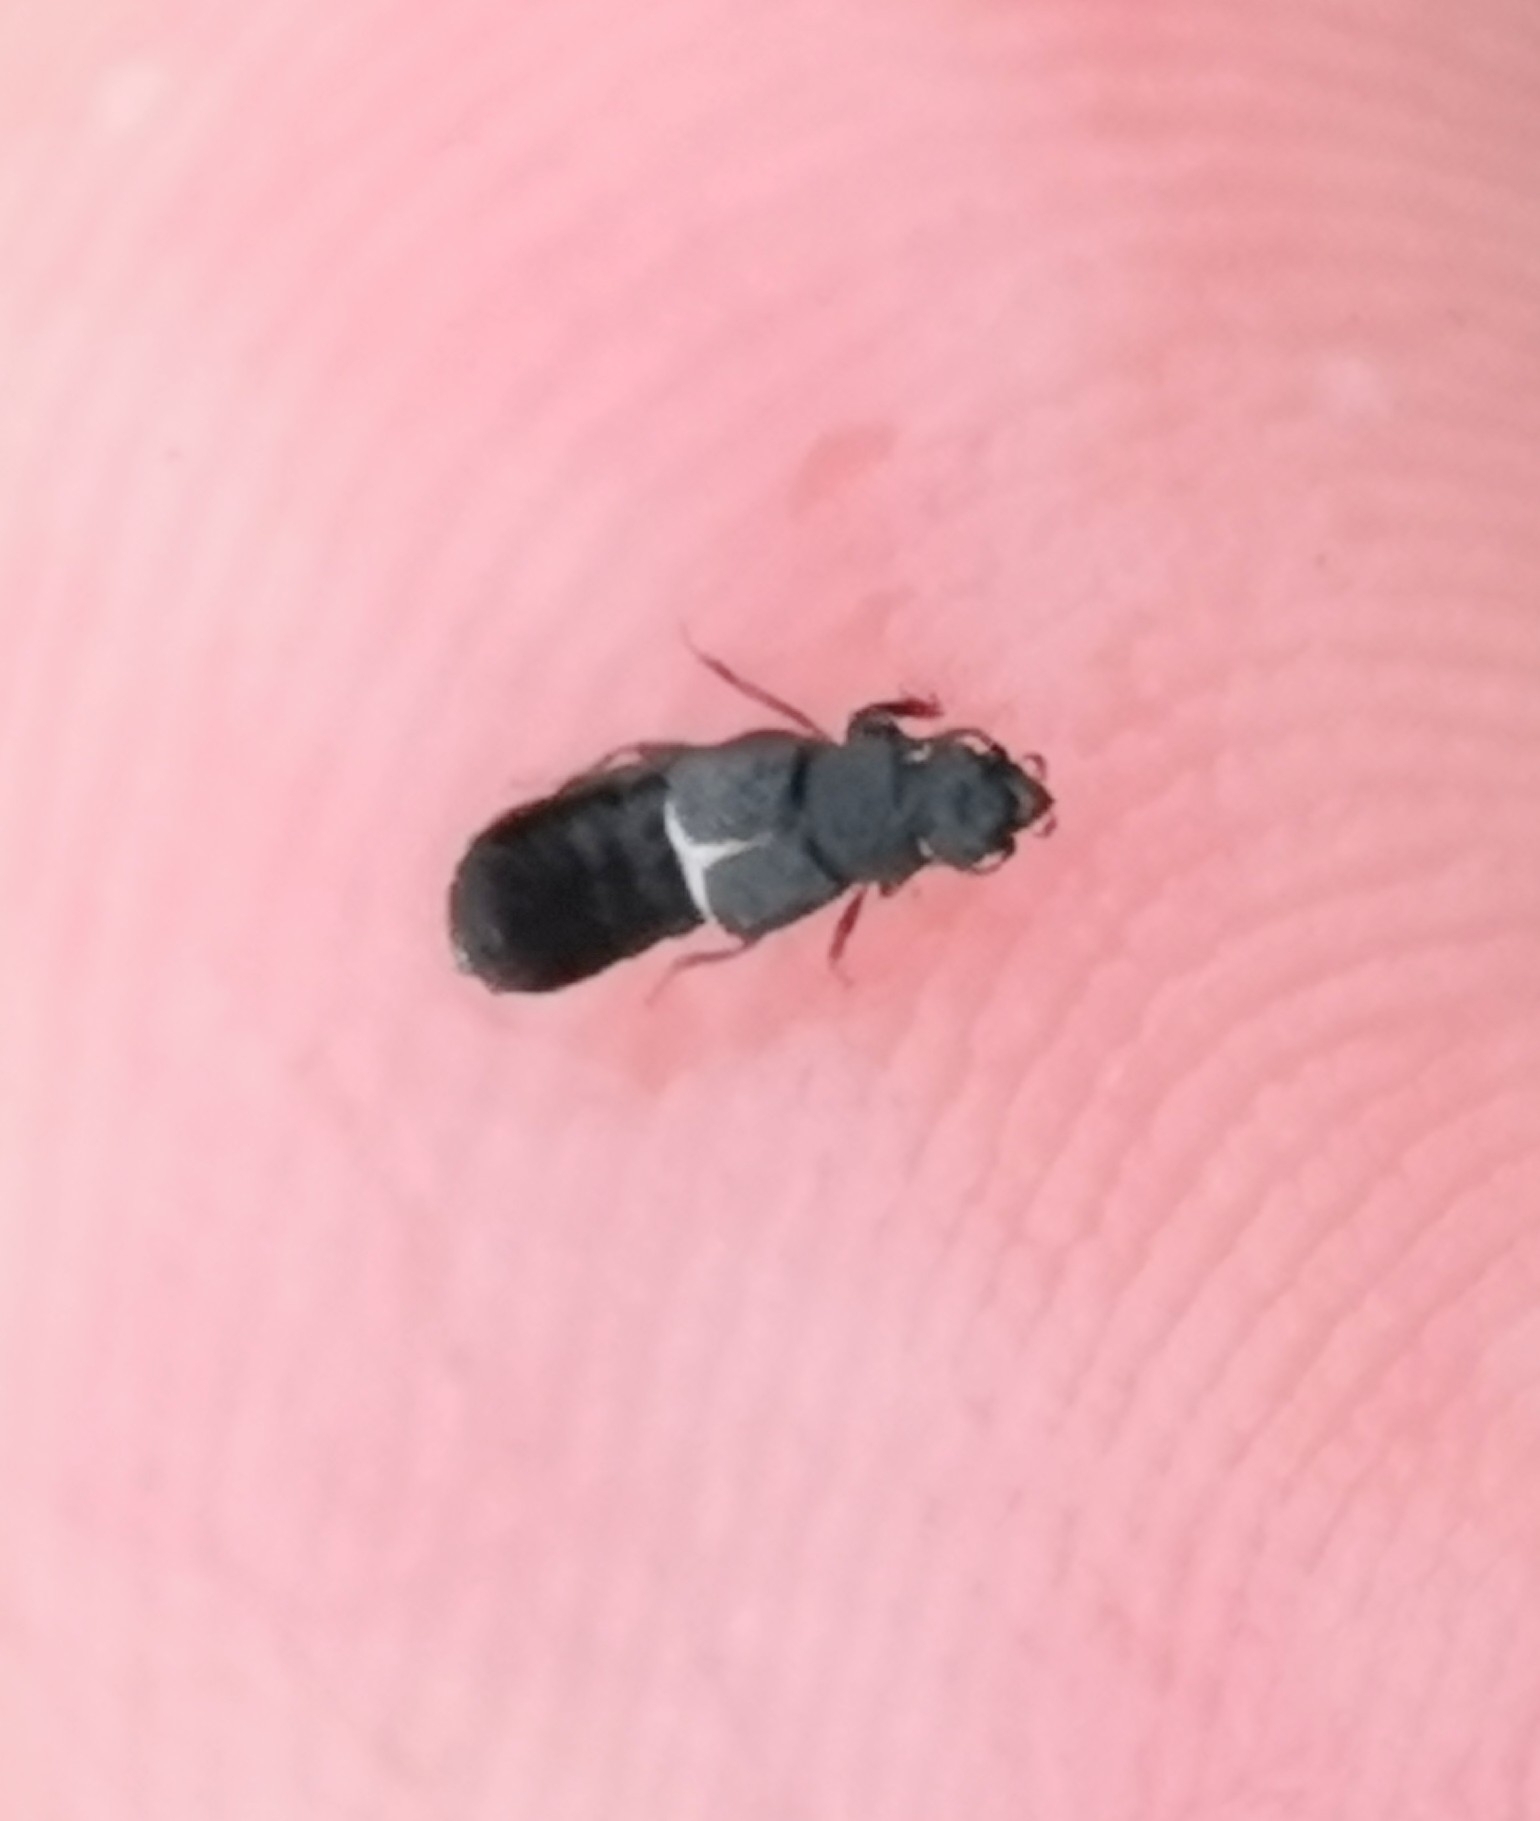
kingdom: Animalia
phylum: Arthropoda
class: Insecta
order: Coleoptera
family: Staphylinidae
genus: Anotylus
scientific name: Anotylus rugosus
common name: Rove beetle
